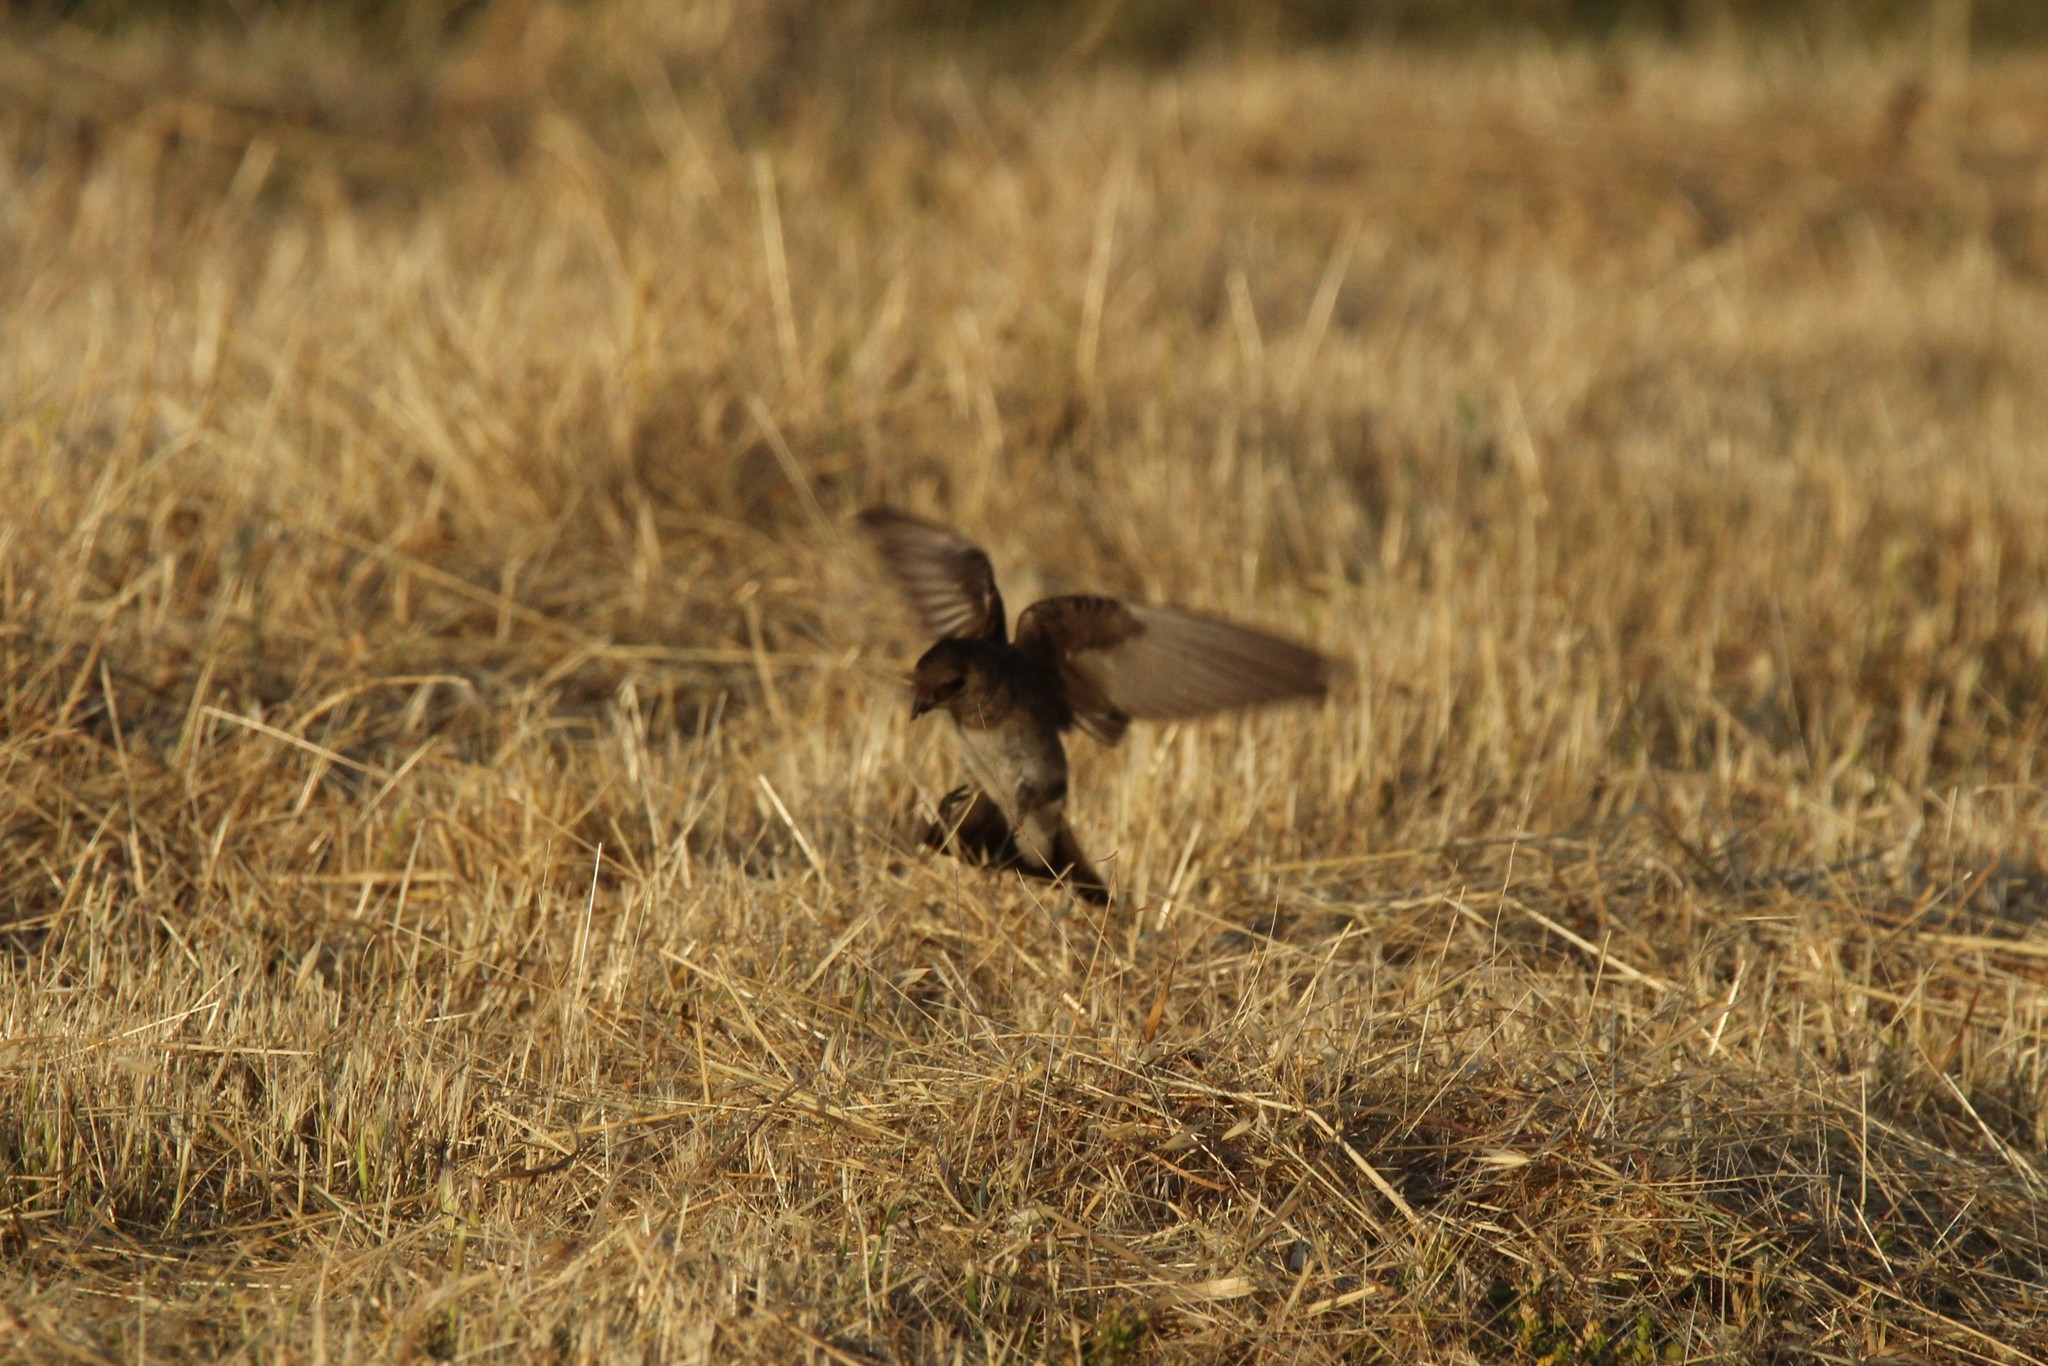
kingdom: Animalia
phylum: Chordata
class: Aves
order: Passeriformes
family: Hirundinidae
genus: Stelgidopteryx
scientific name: Stelgidopteryx serripennis
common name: Northern rough-winged swallow
